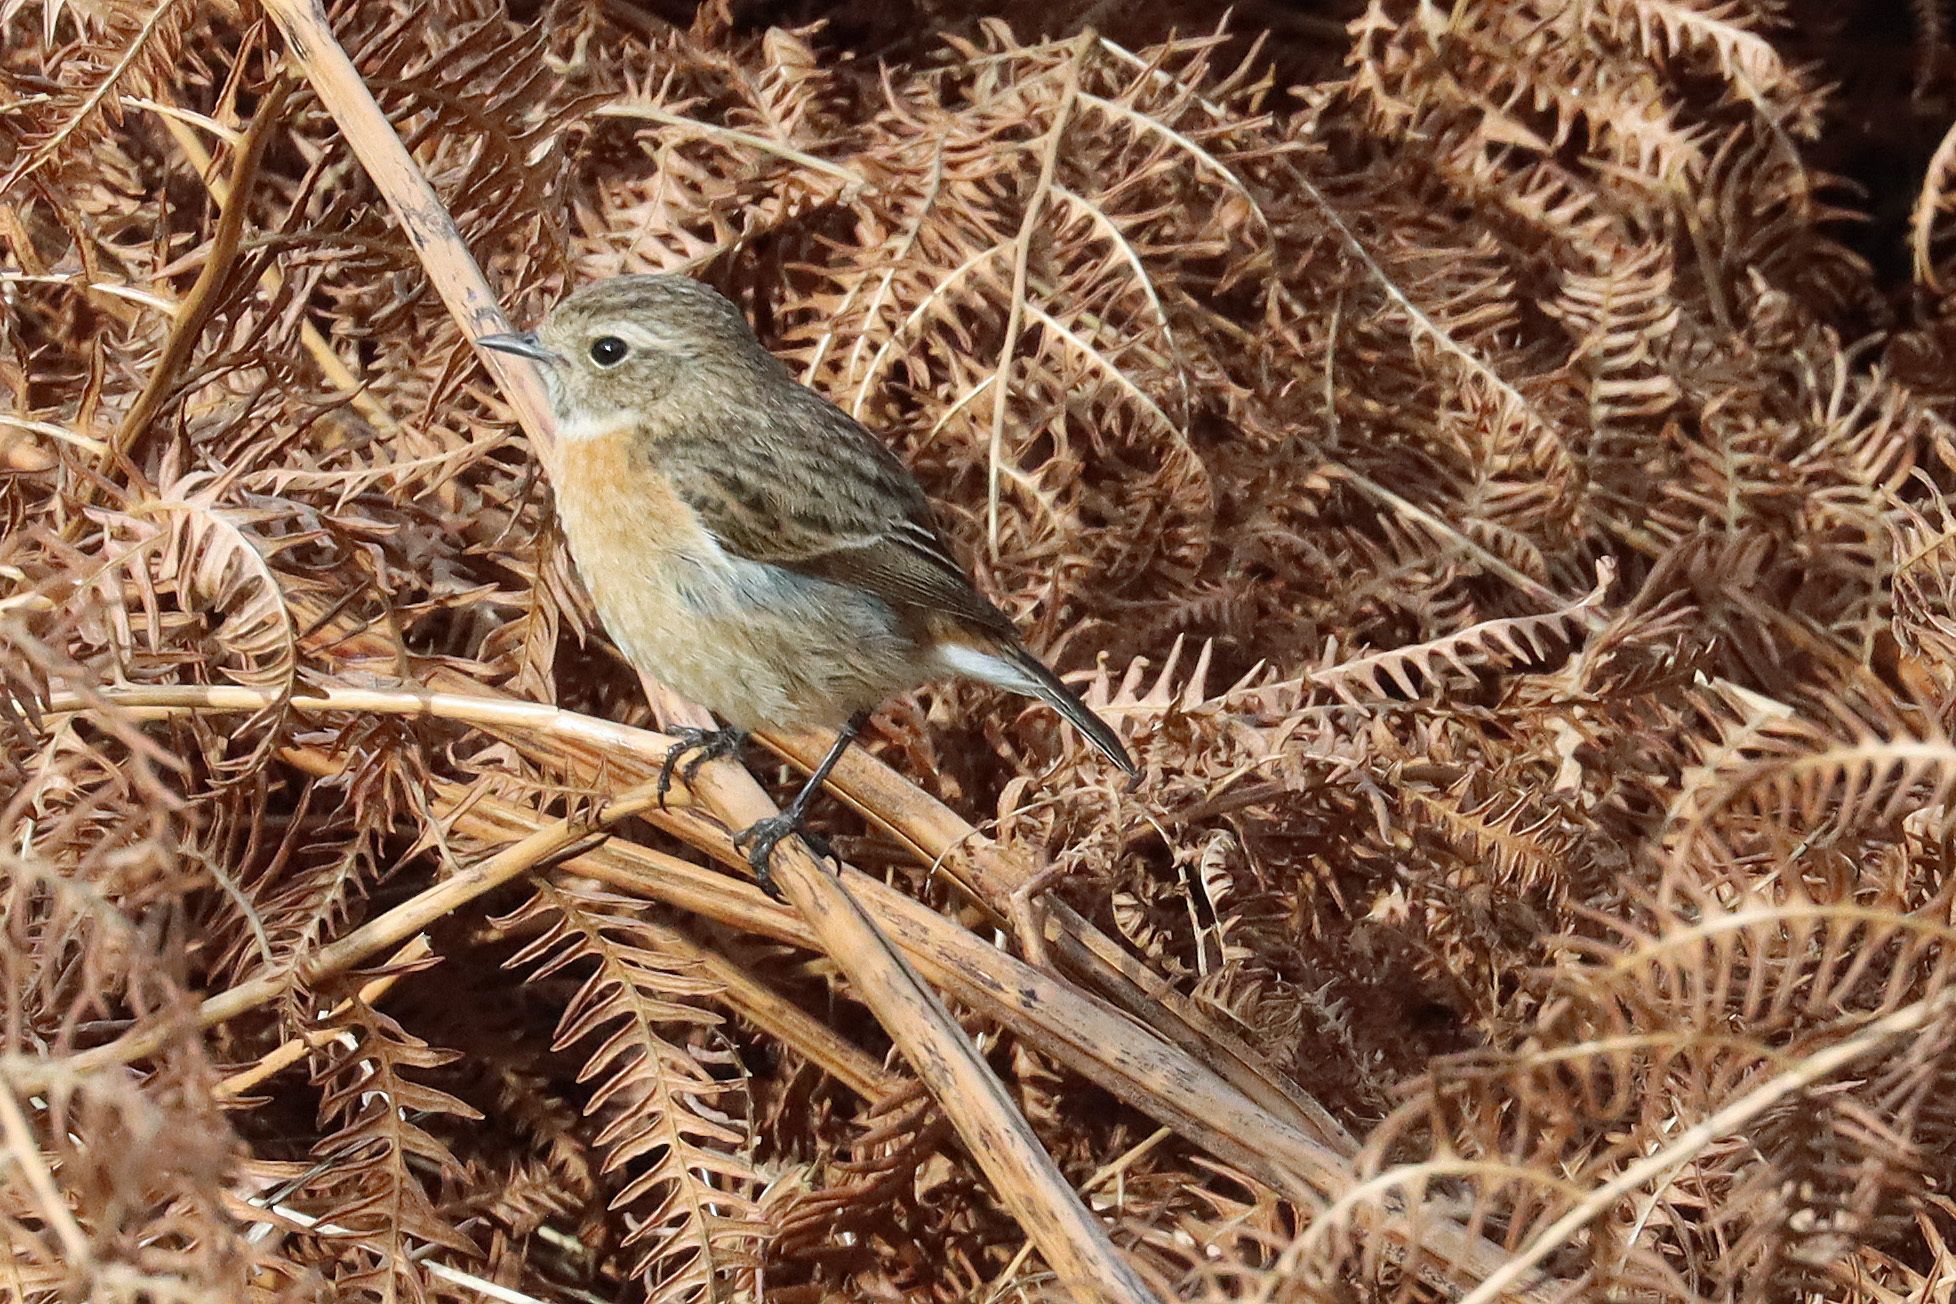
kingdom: Animalia
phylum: Chordata
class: Aves
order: Passeriformes
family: Muscicapidae
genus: Saxicola
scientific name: Saxicola rubicola
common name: European stonechat
